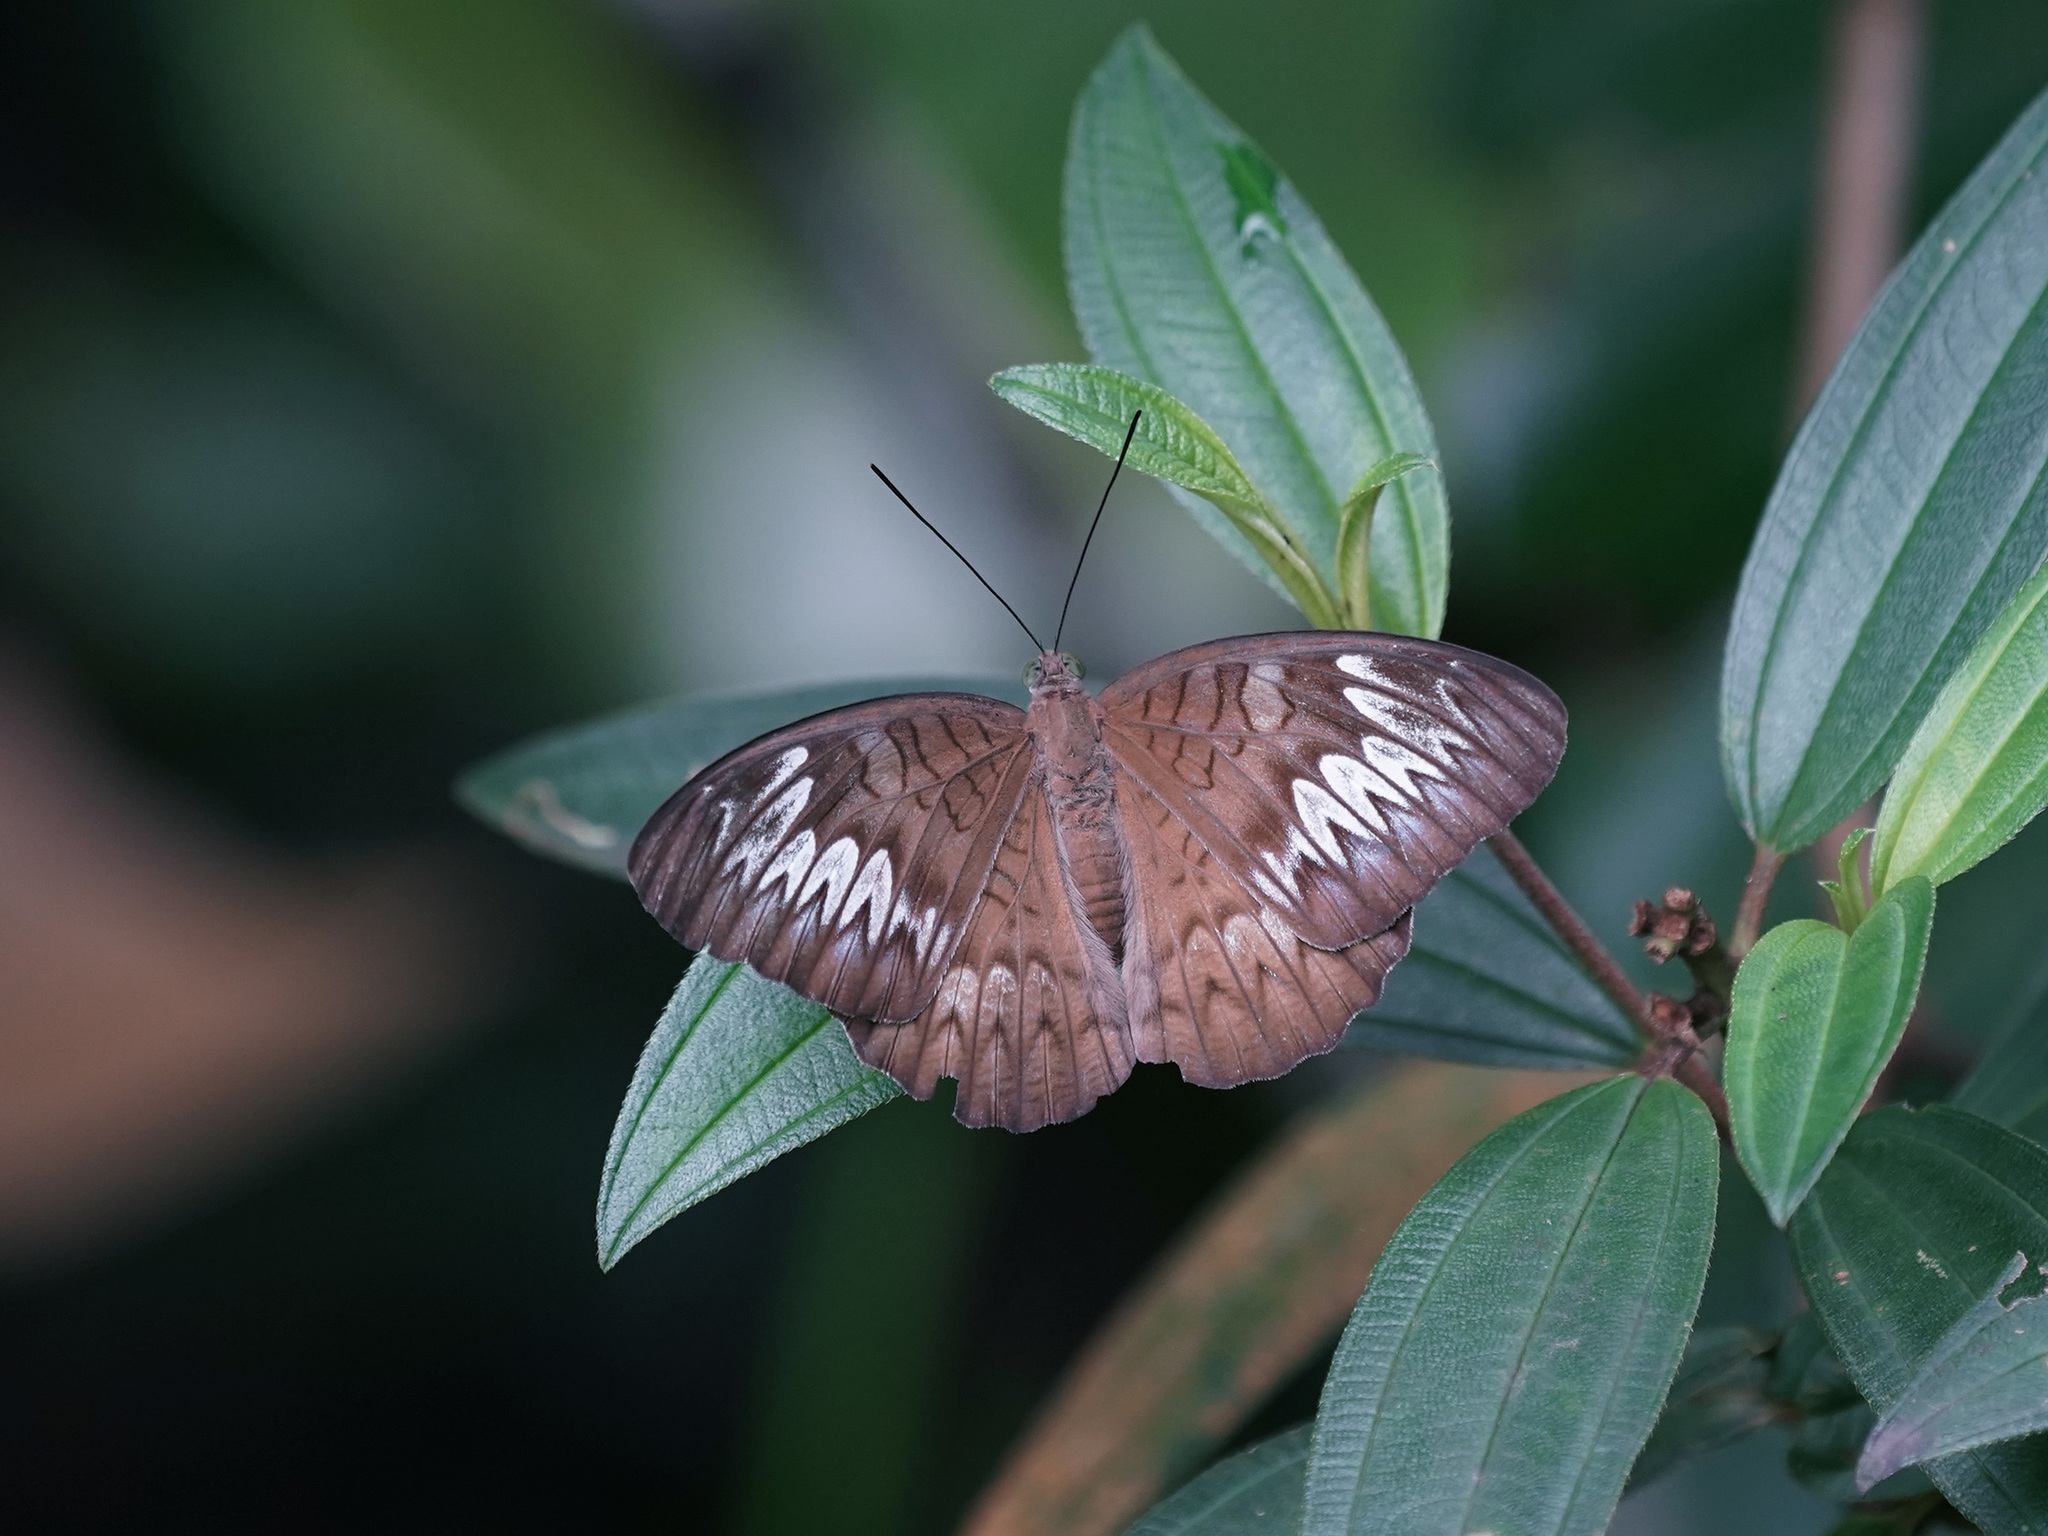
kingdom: Animalia
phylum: Arthropoda
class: Insecta
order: Lepidoptera
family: Nymphalidae
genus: Tanaecia
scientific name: Tanaecia pelea
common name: Malay viscount
